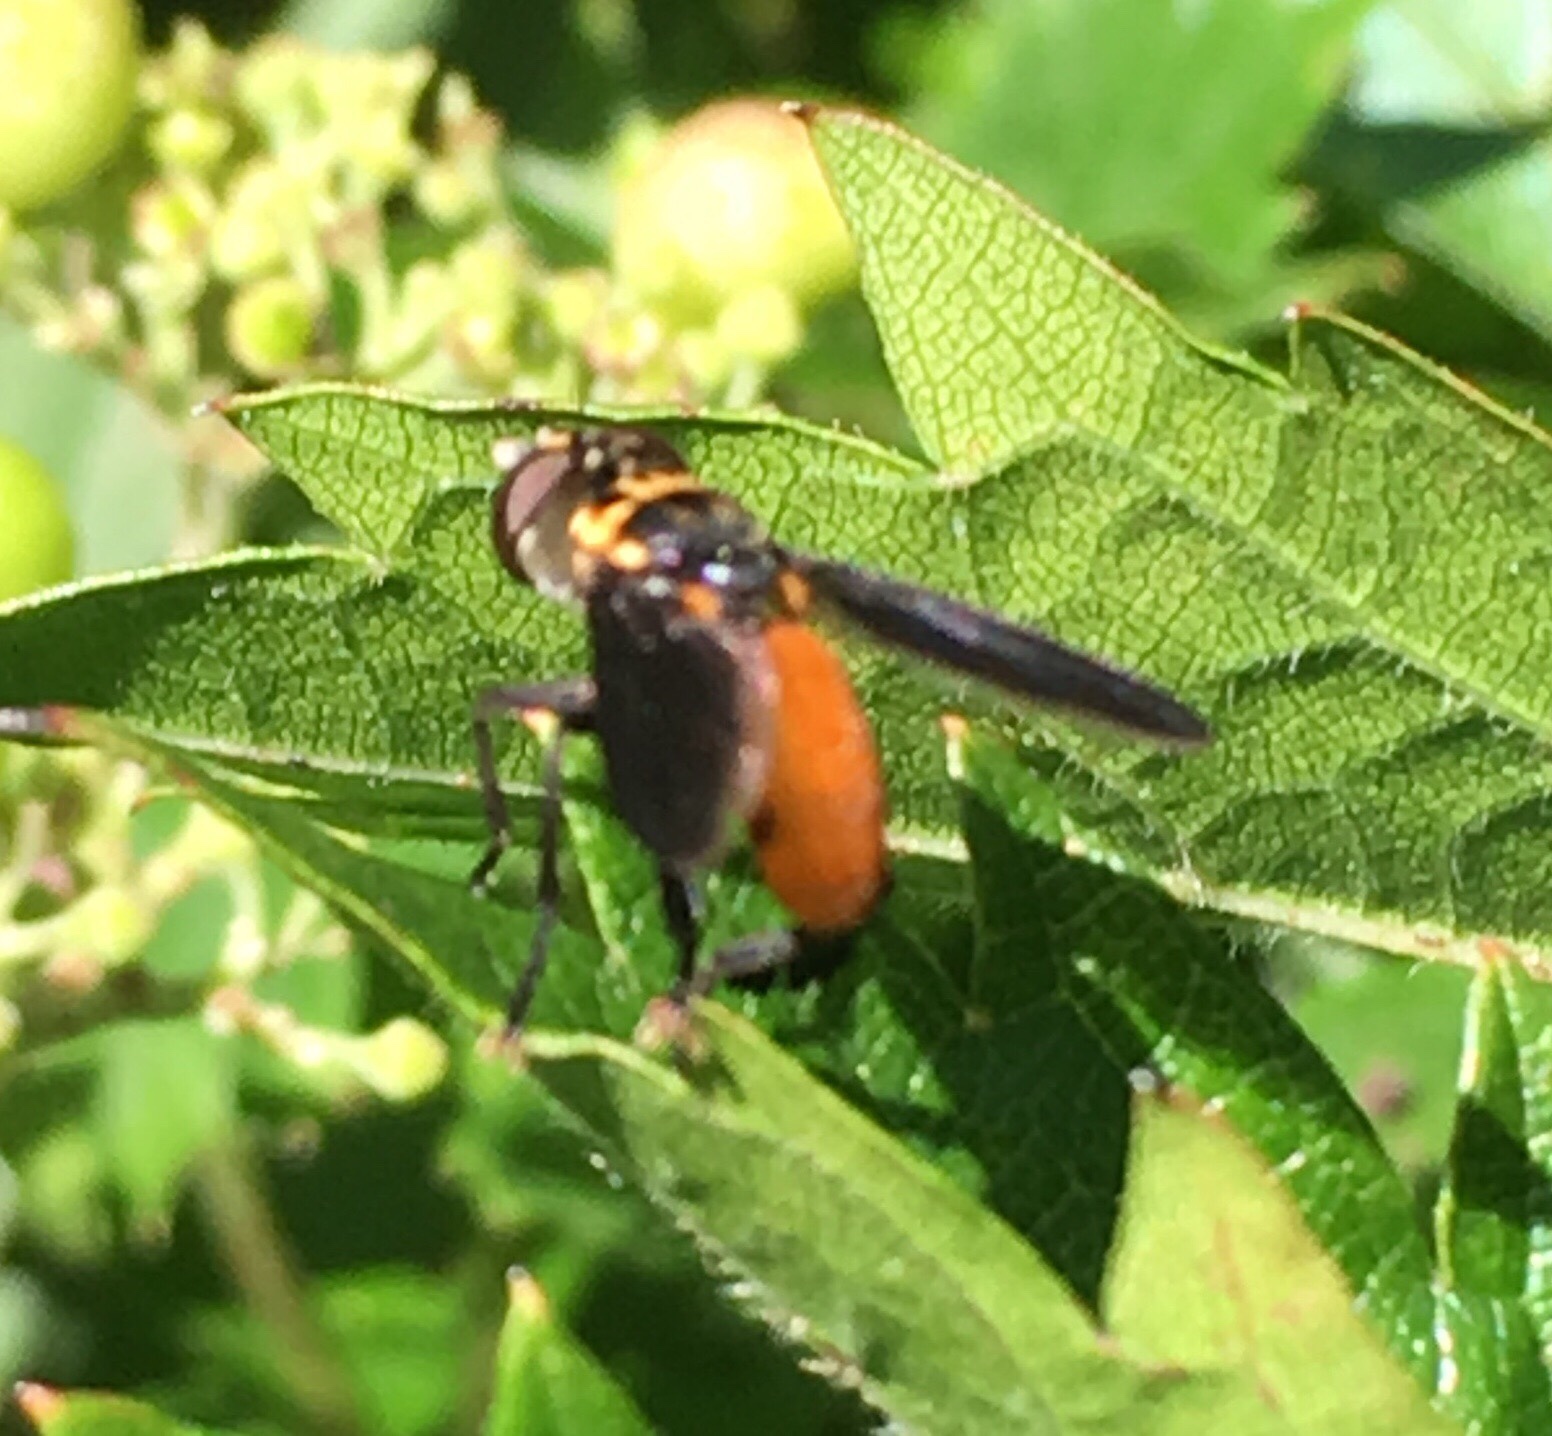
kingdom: Animalia
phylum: Arthropoda
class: Insecta
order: Diptera
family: Tachinidae
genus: Trichopoda
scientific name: Trichopoda pennipes
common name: Tachinid fly
